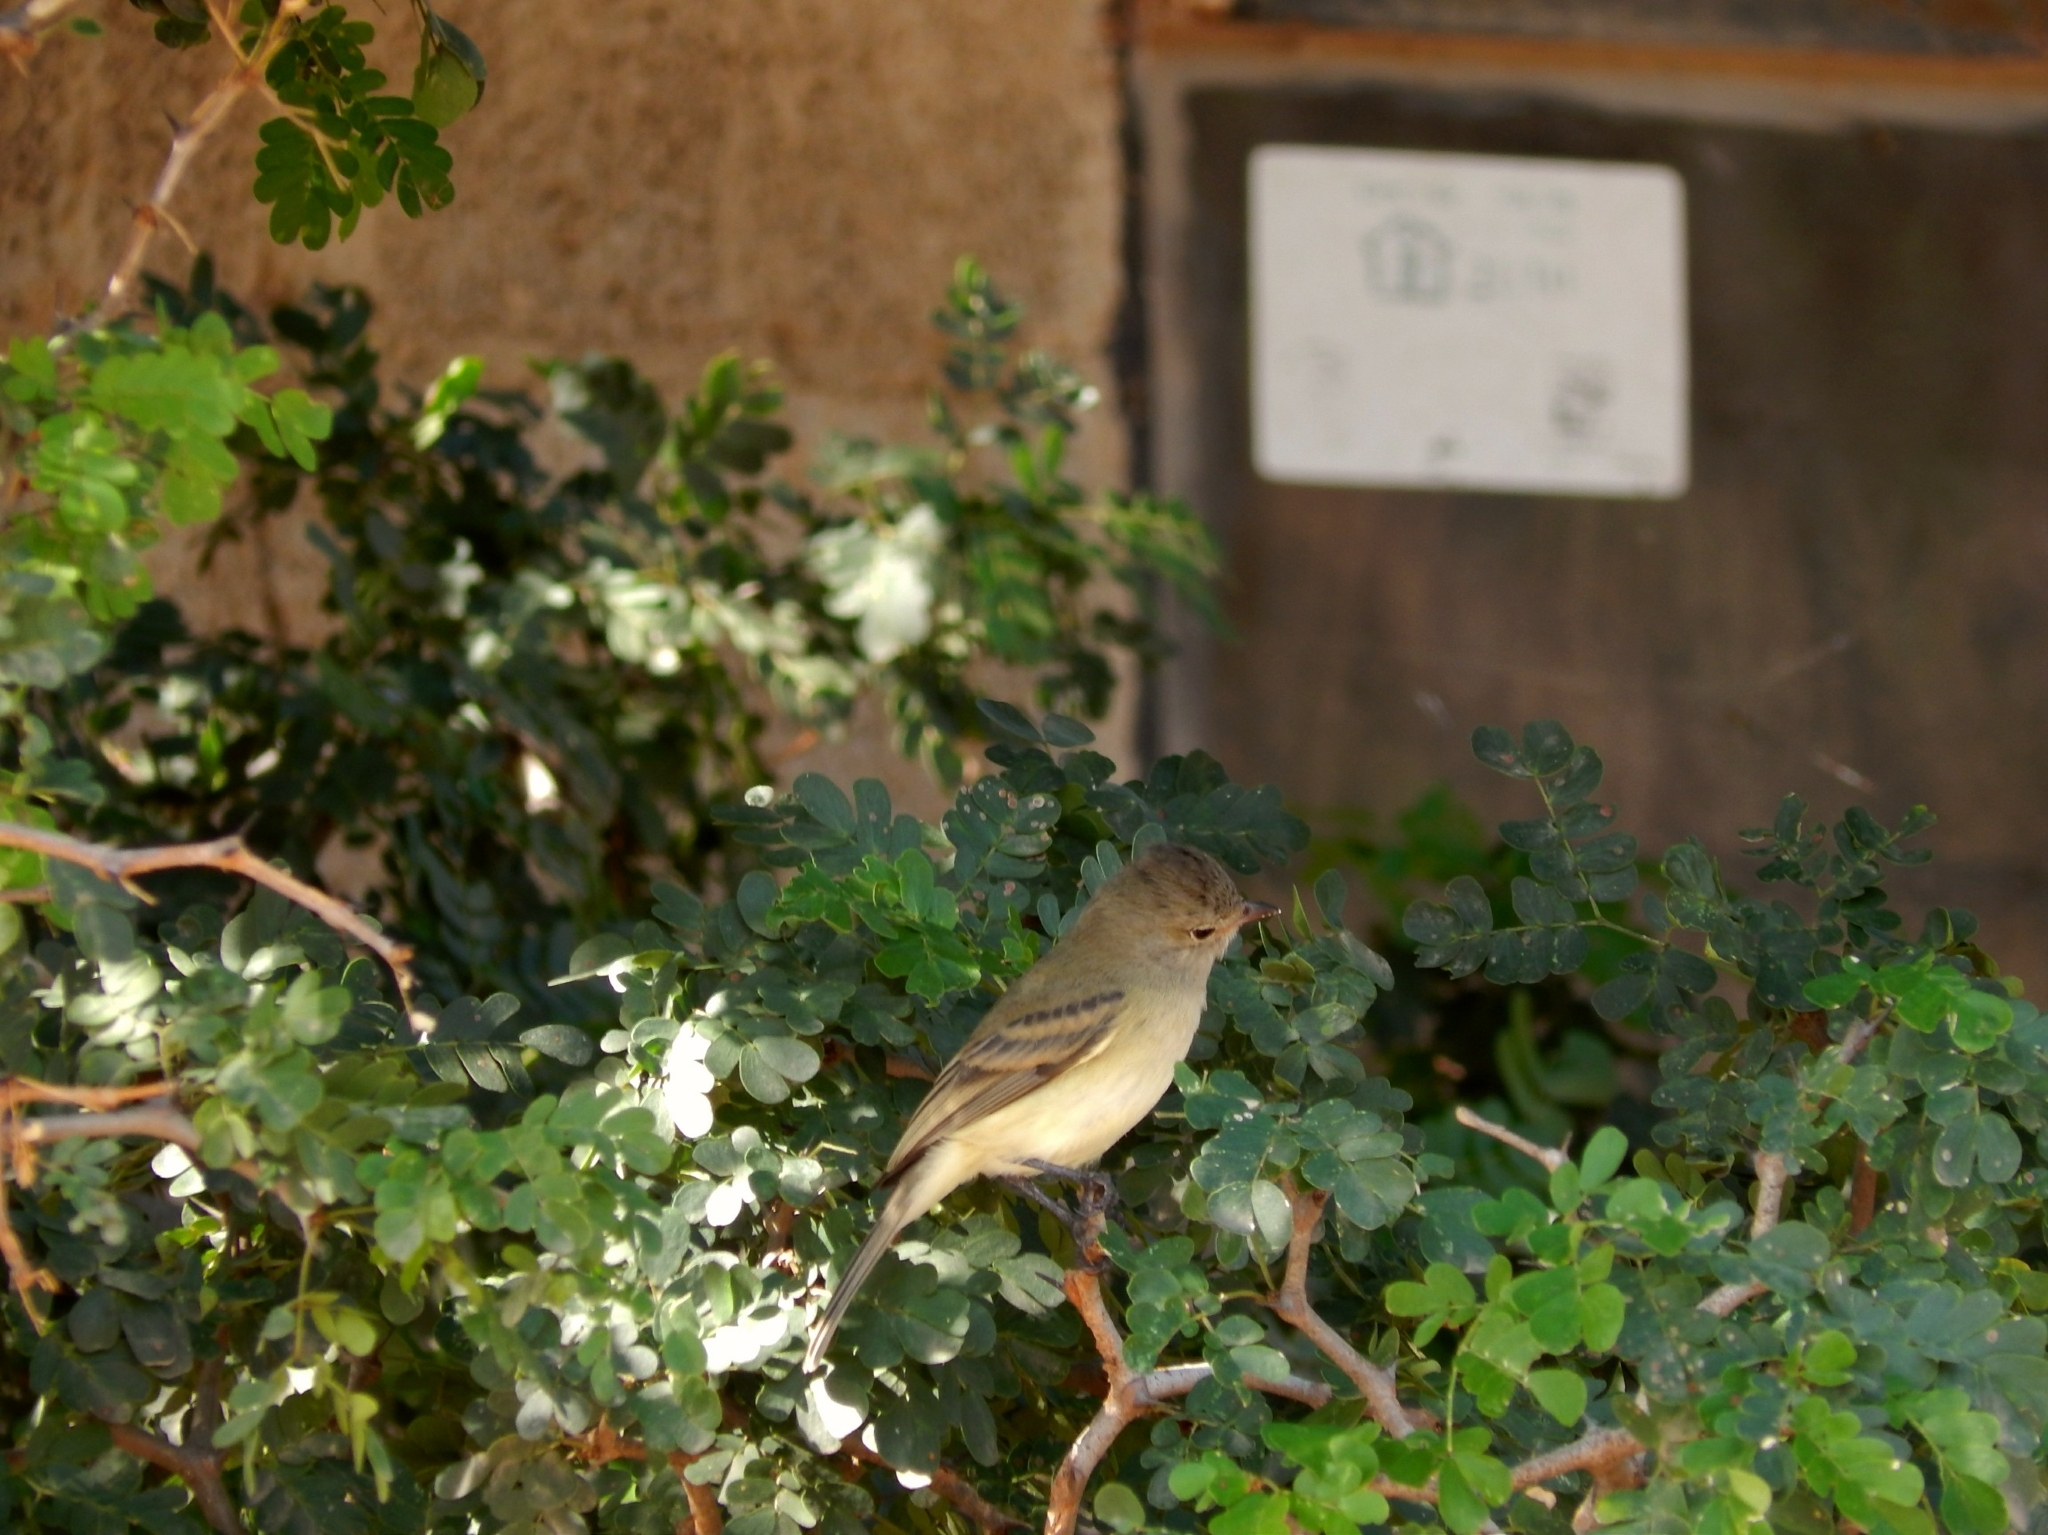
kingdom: Animalia
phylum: Chordata
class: Aves
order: Passeriformes
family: Tyrannidae
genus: Camptostoma
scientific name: Camptostoma imberbe
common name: Northern beardless-tyrannulet
